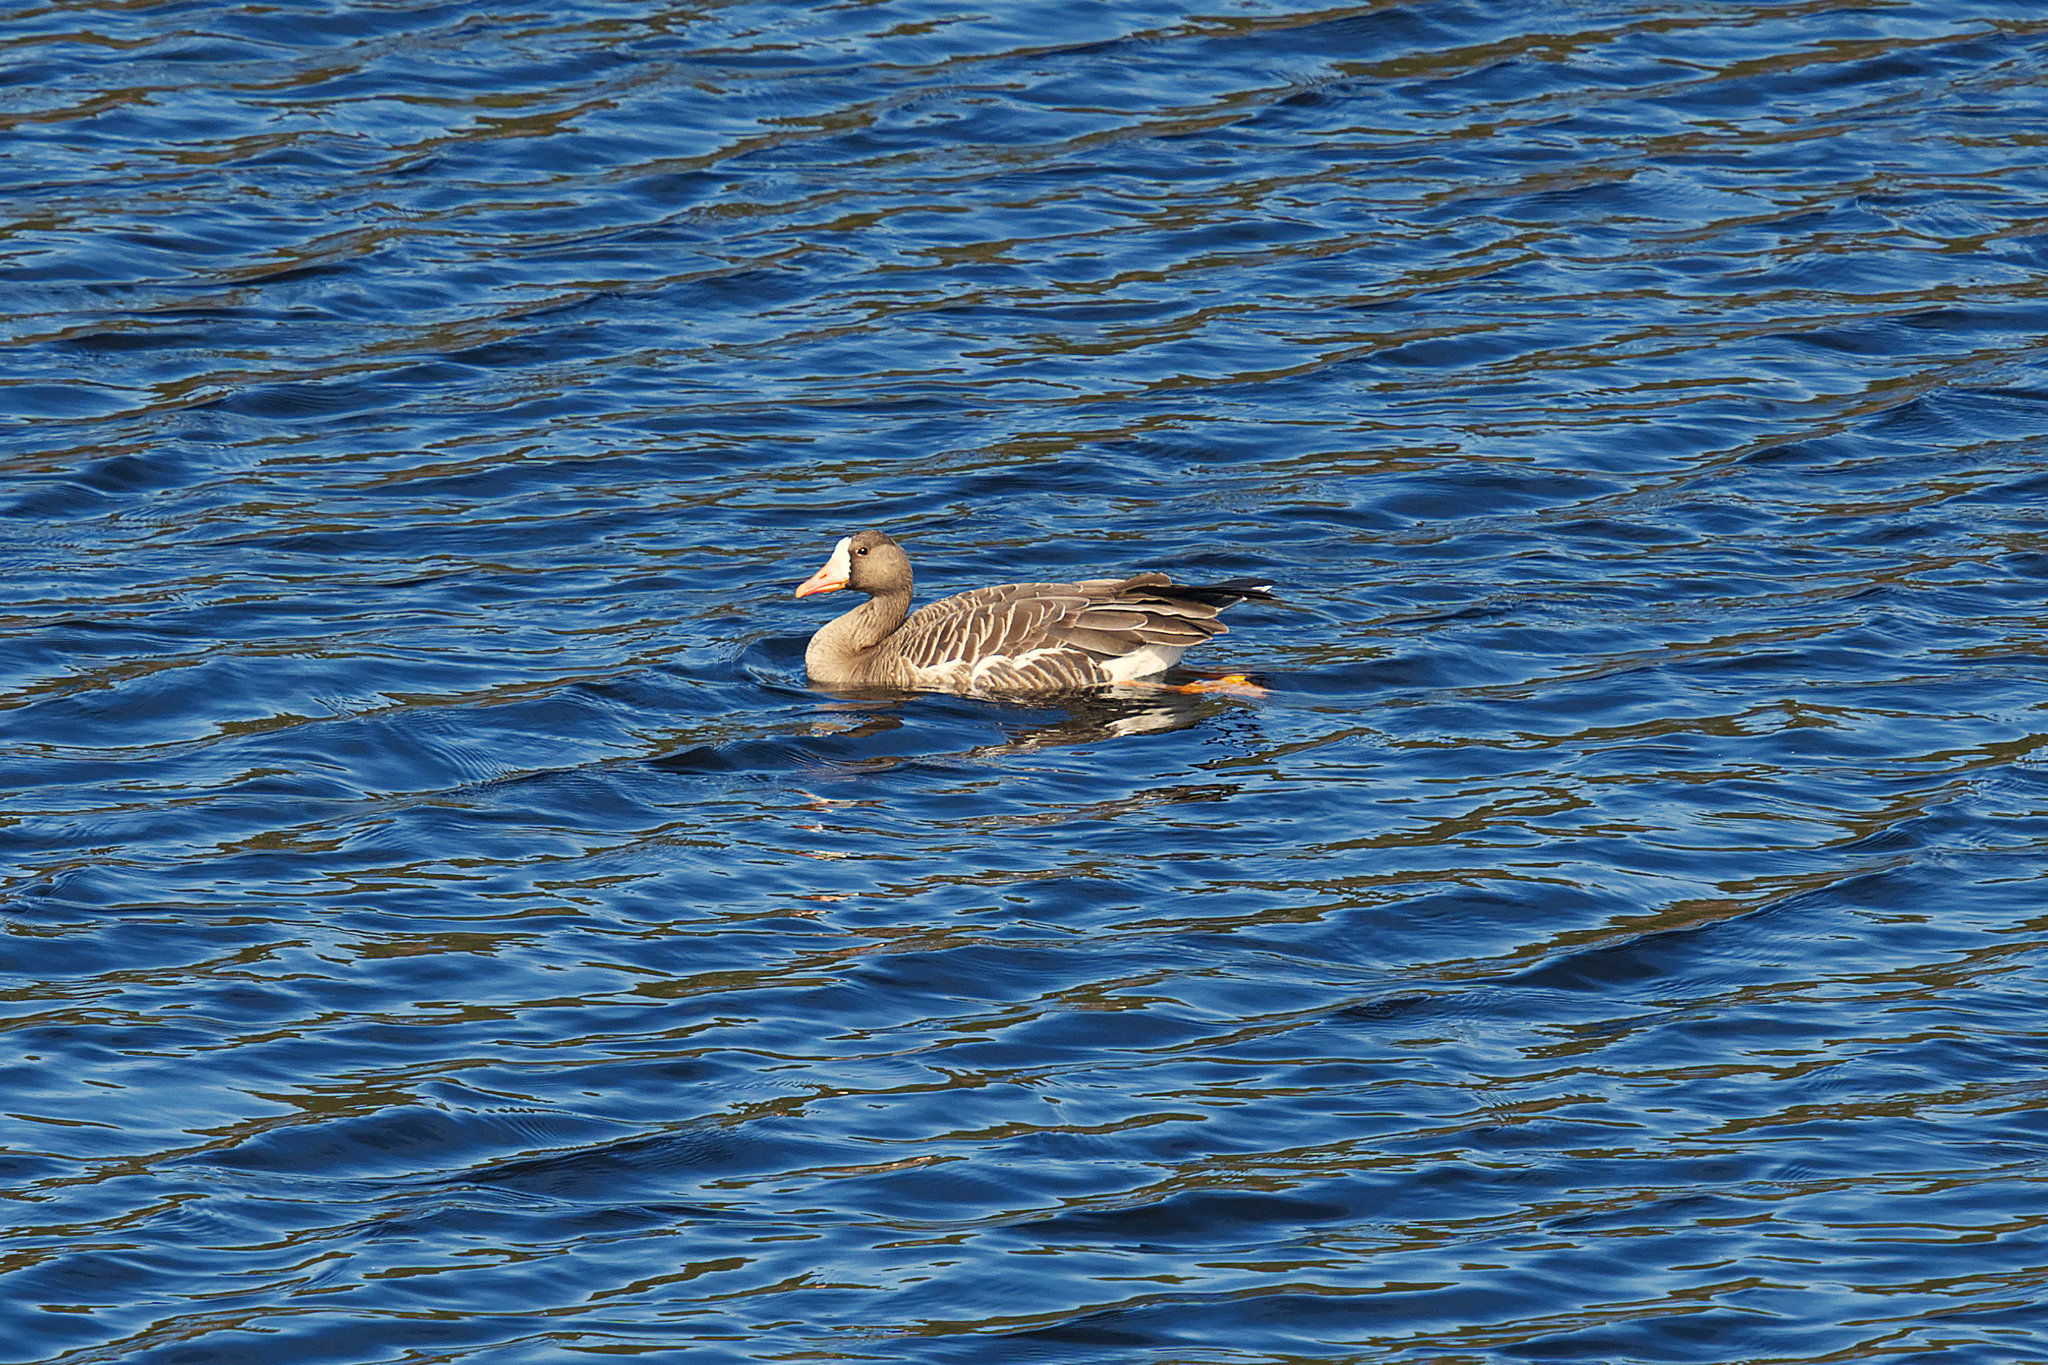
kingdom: Animalia
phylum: Chordata
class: Aves
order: Anseriformes
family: Anatidae
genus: Anser
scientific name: Anser albifrons
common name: Greater white-fronted goose
